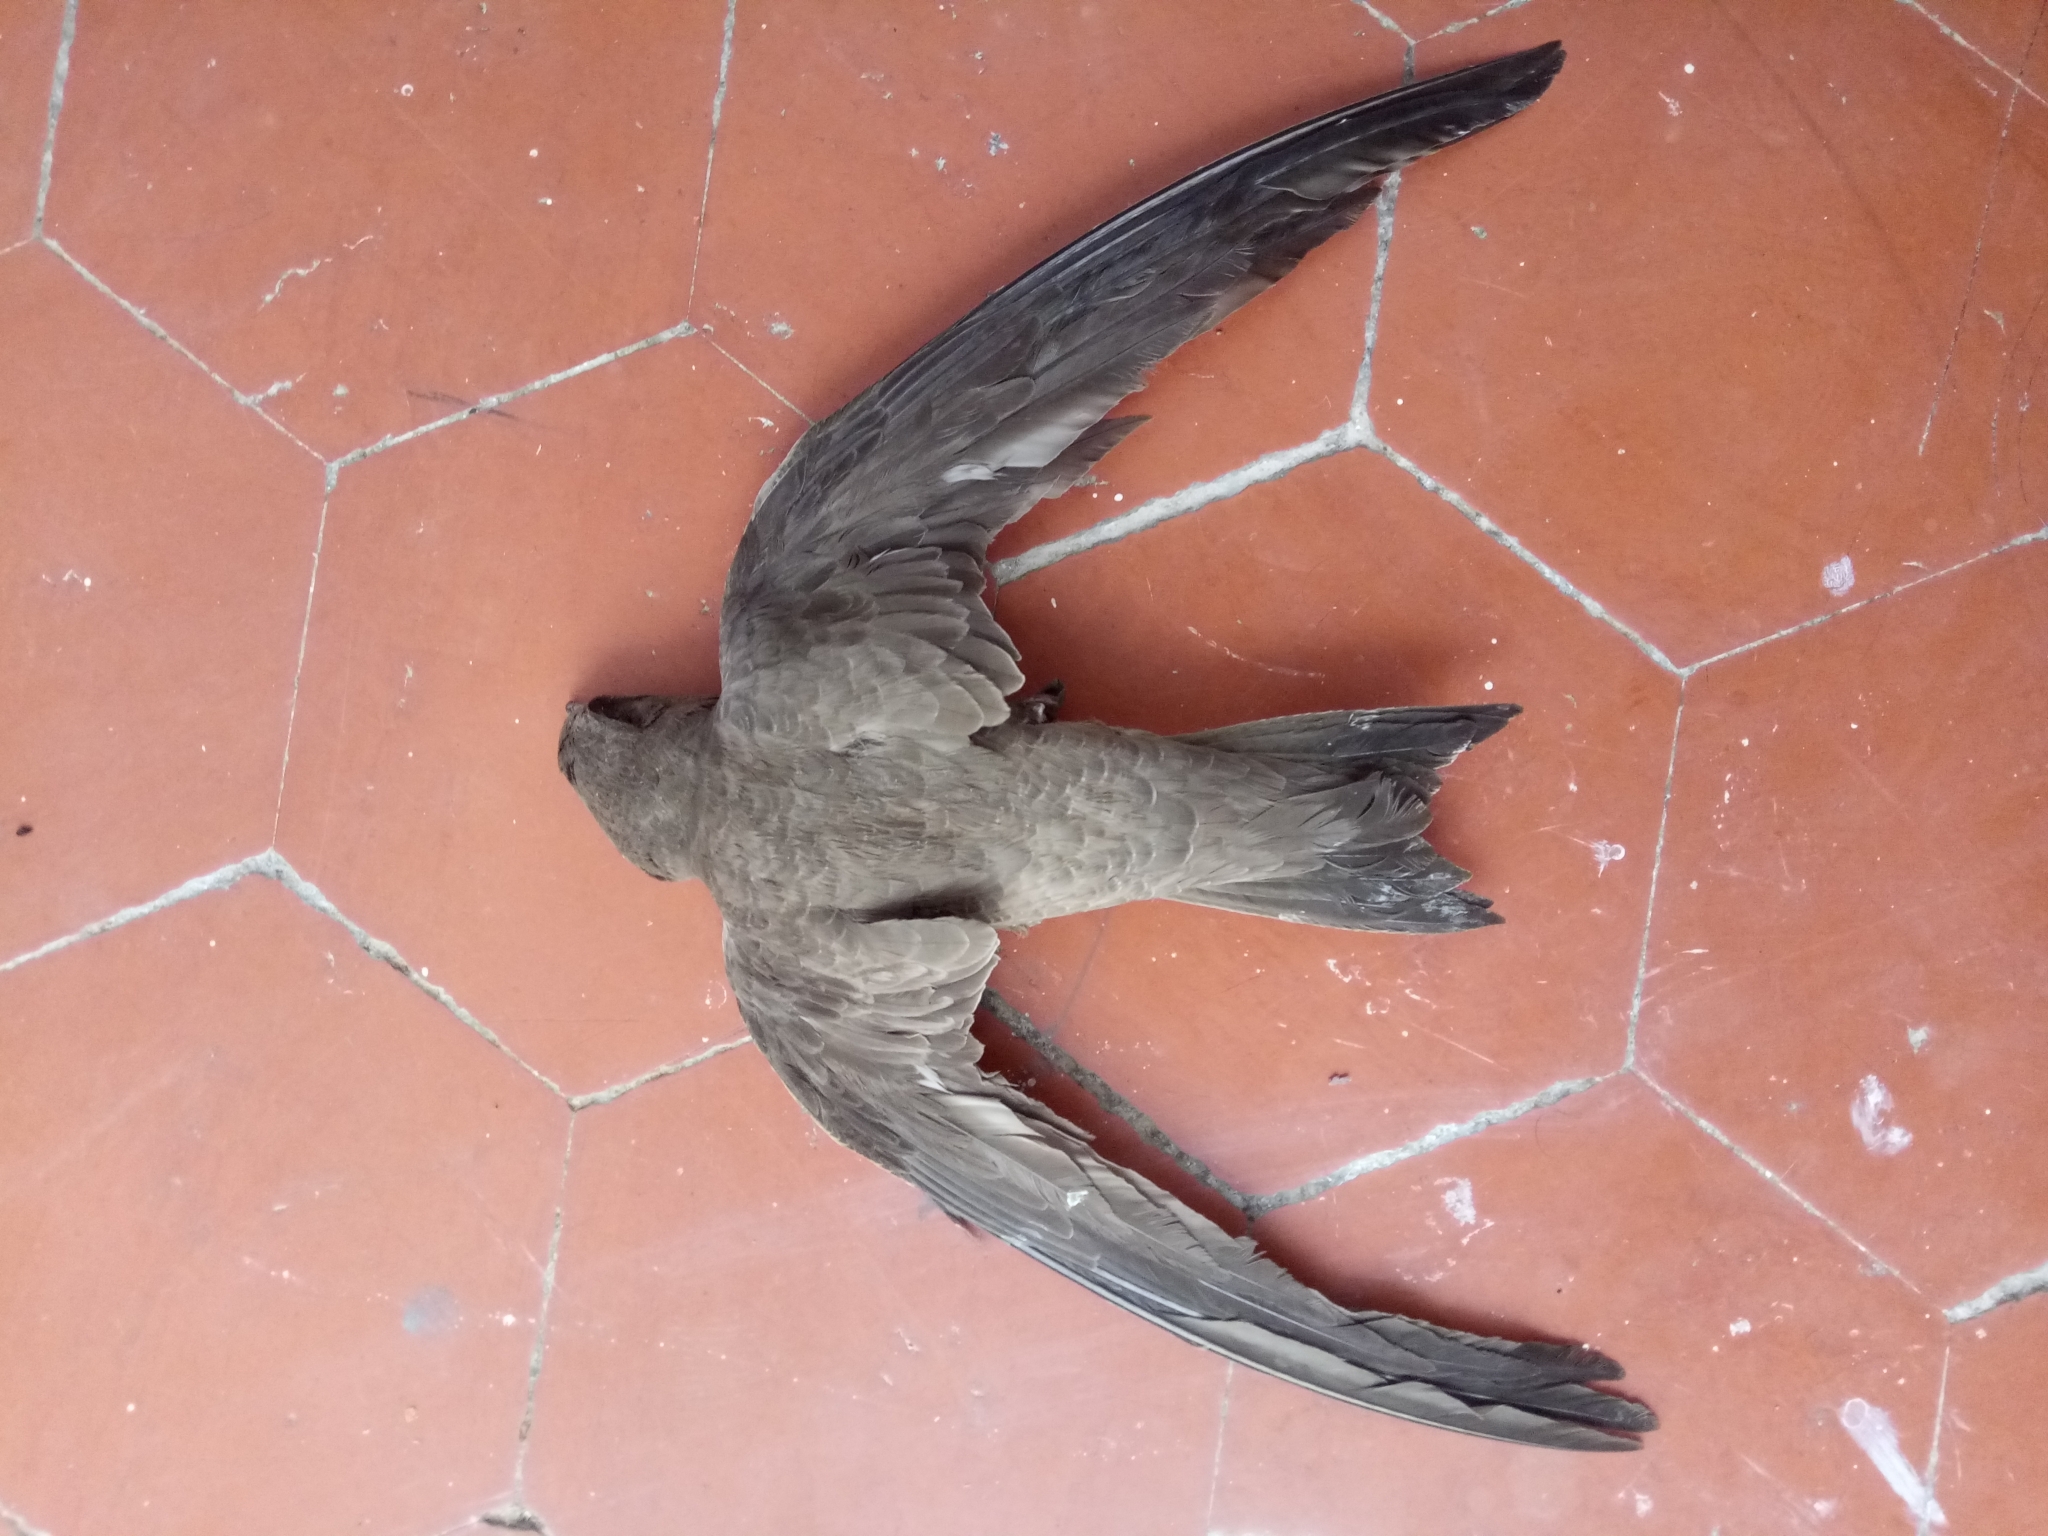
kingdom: Animalia
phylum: Chordata
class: Aves
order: Apodiformes
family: Apodidae
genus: Tachymarptis
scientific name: Tachymarptis melba
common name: Alpine swift
